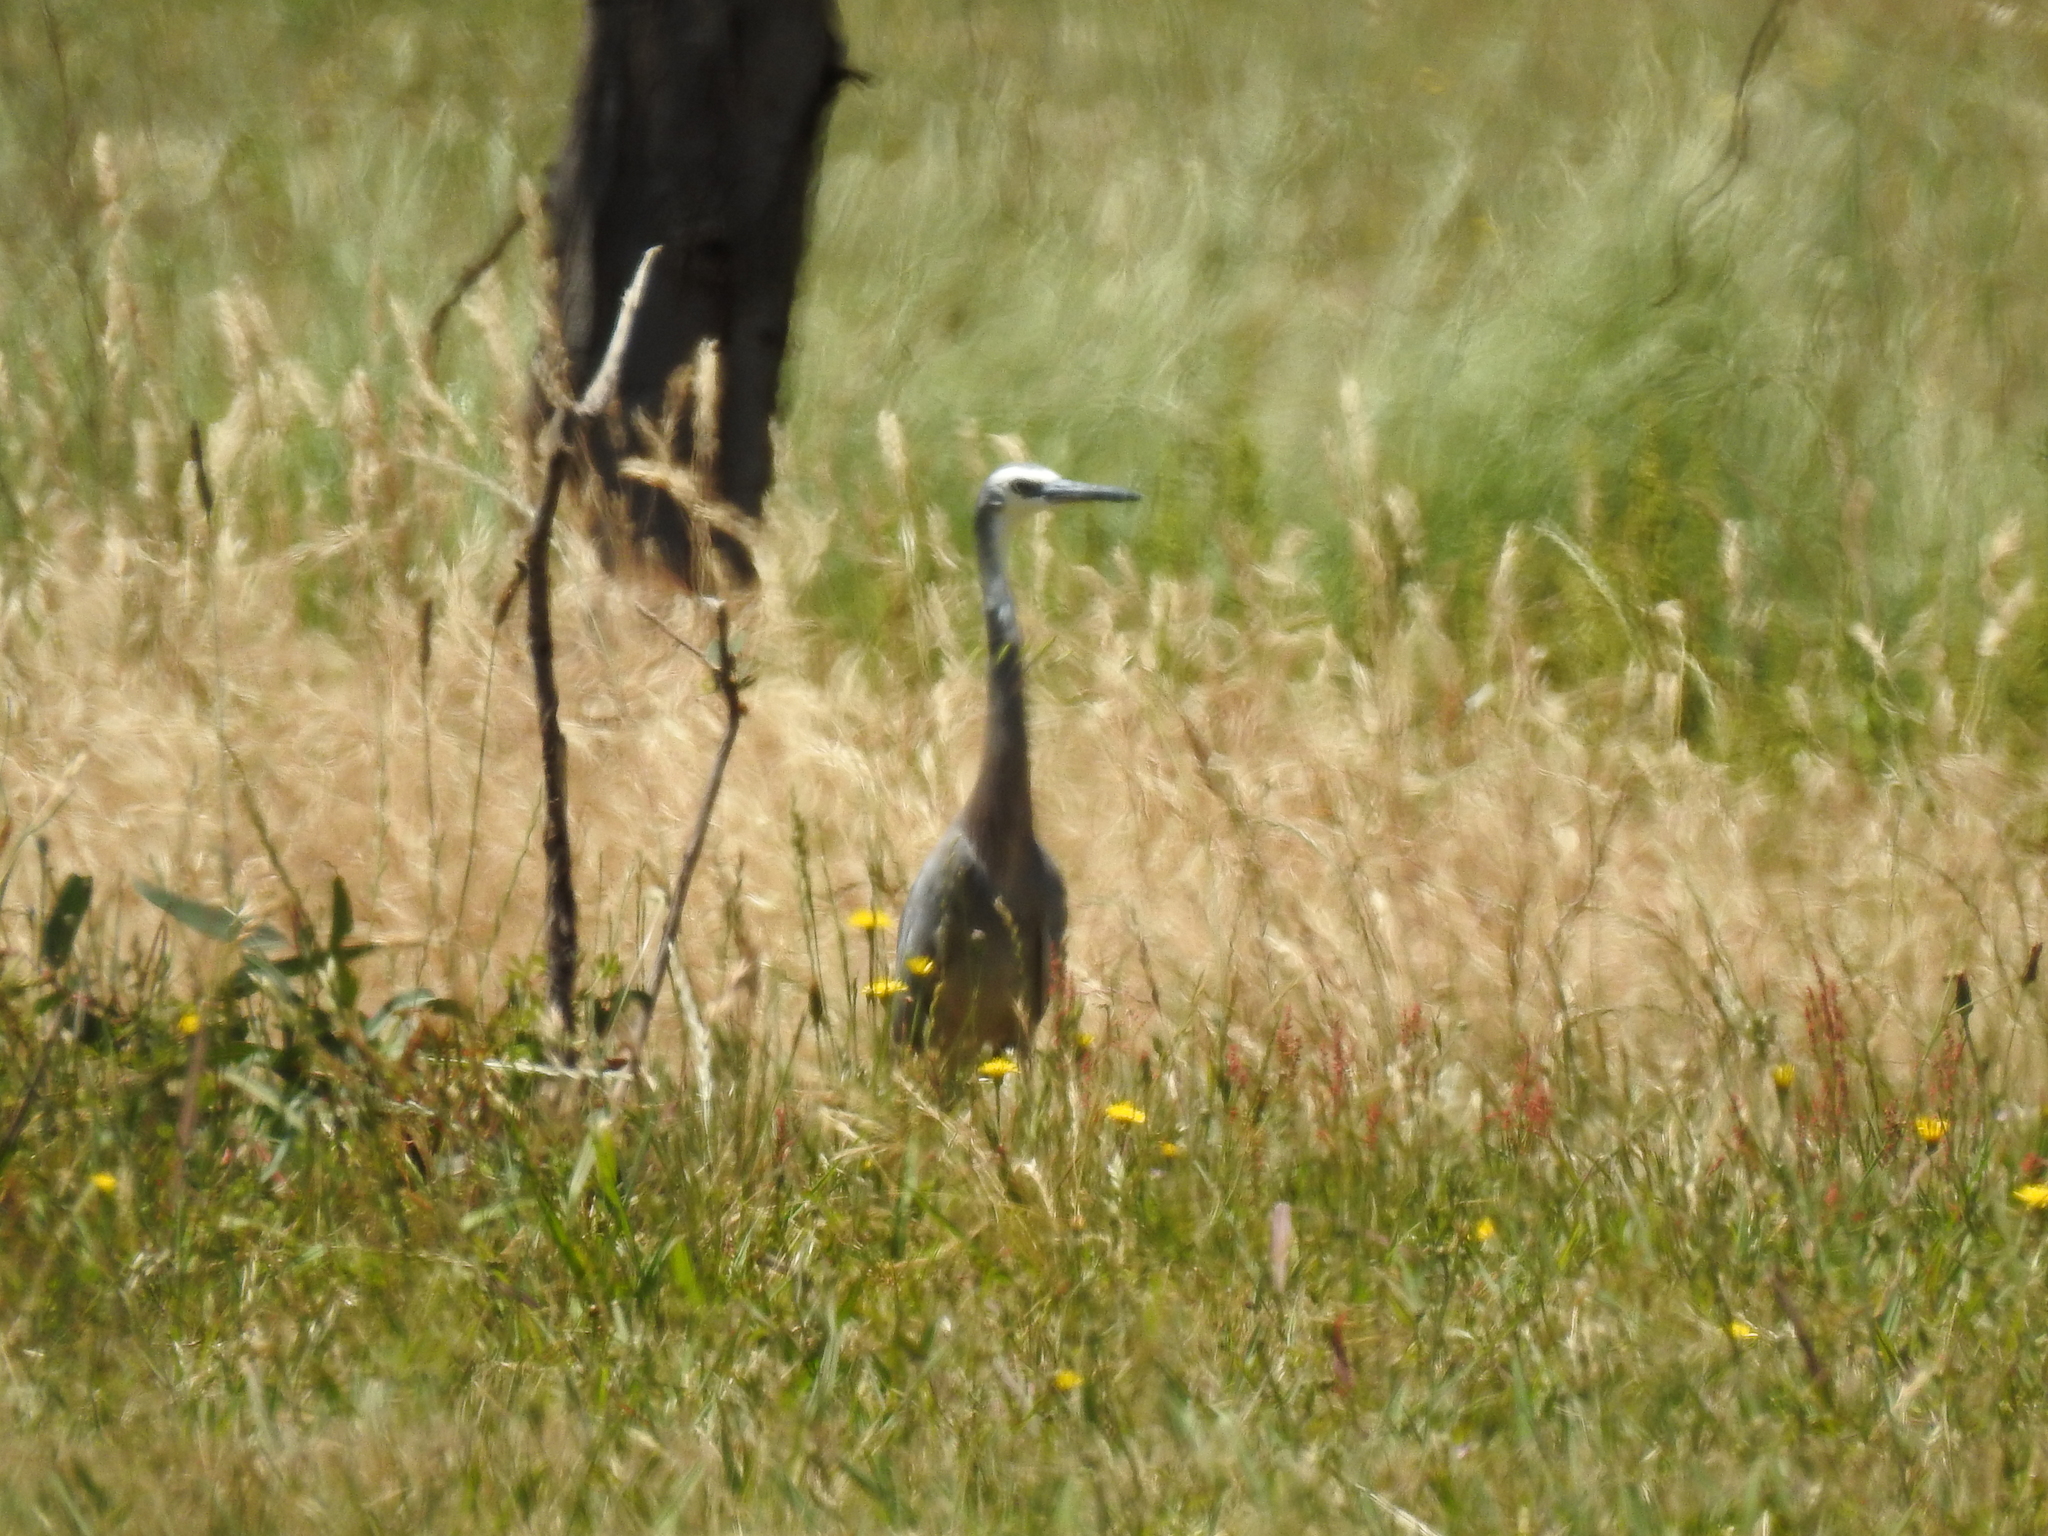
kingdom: Animalia
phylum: Chordata
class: Aves
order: Pelecaniformes
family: Ardeidae
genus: Egretta
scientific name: Egretta novaehollandiae
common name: White-faced heron
